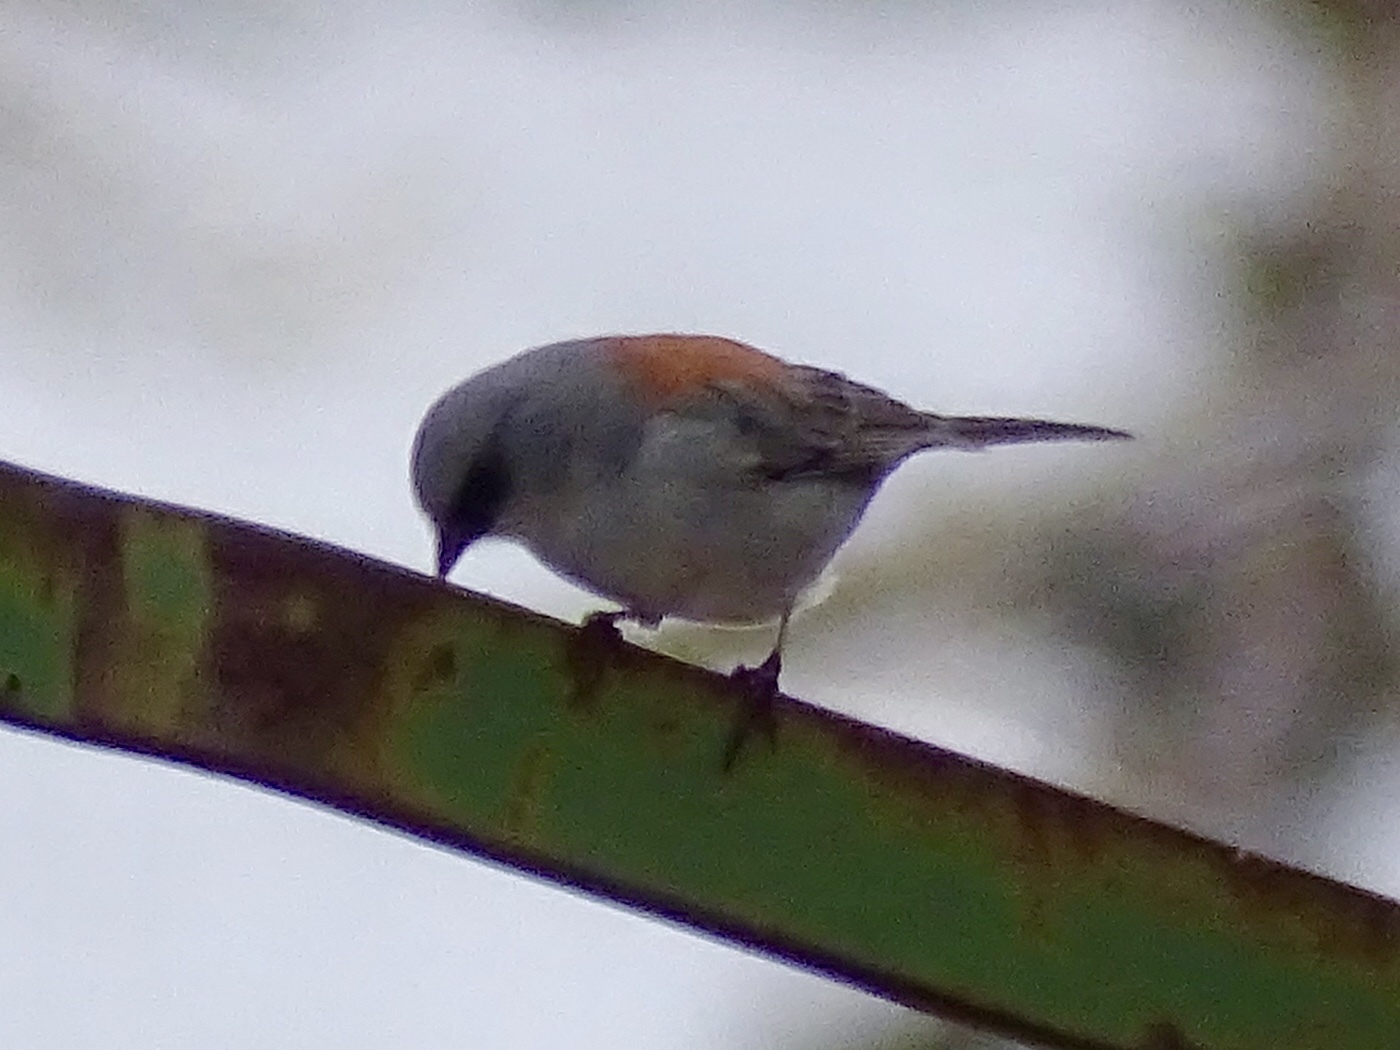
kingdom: Animalia
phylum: Chordata
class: Aves
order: Passeriformes
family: Passerellidae
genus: Junco
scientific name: Junco hyemalis
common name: Dark-eyed junco
